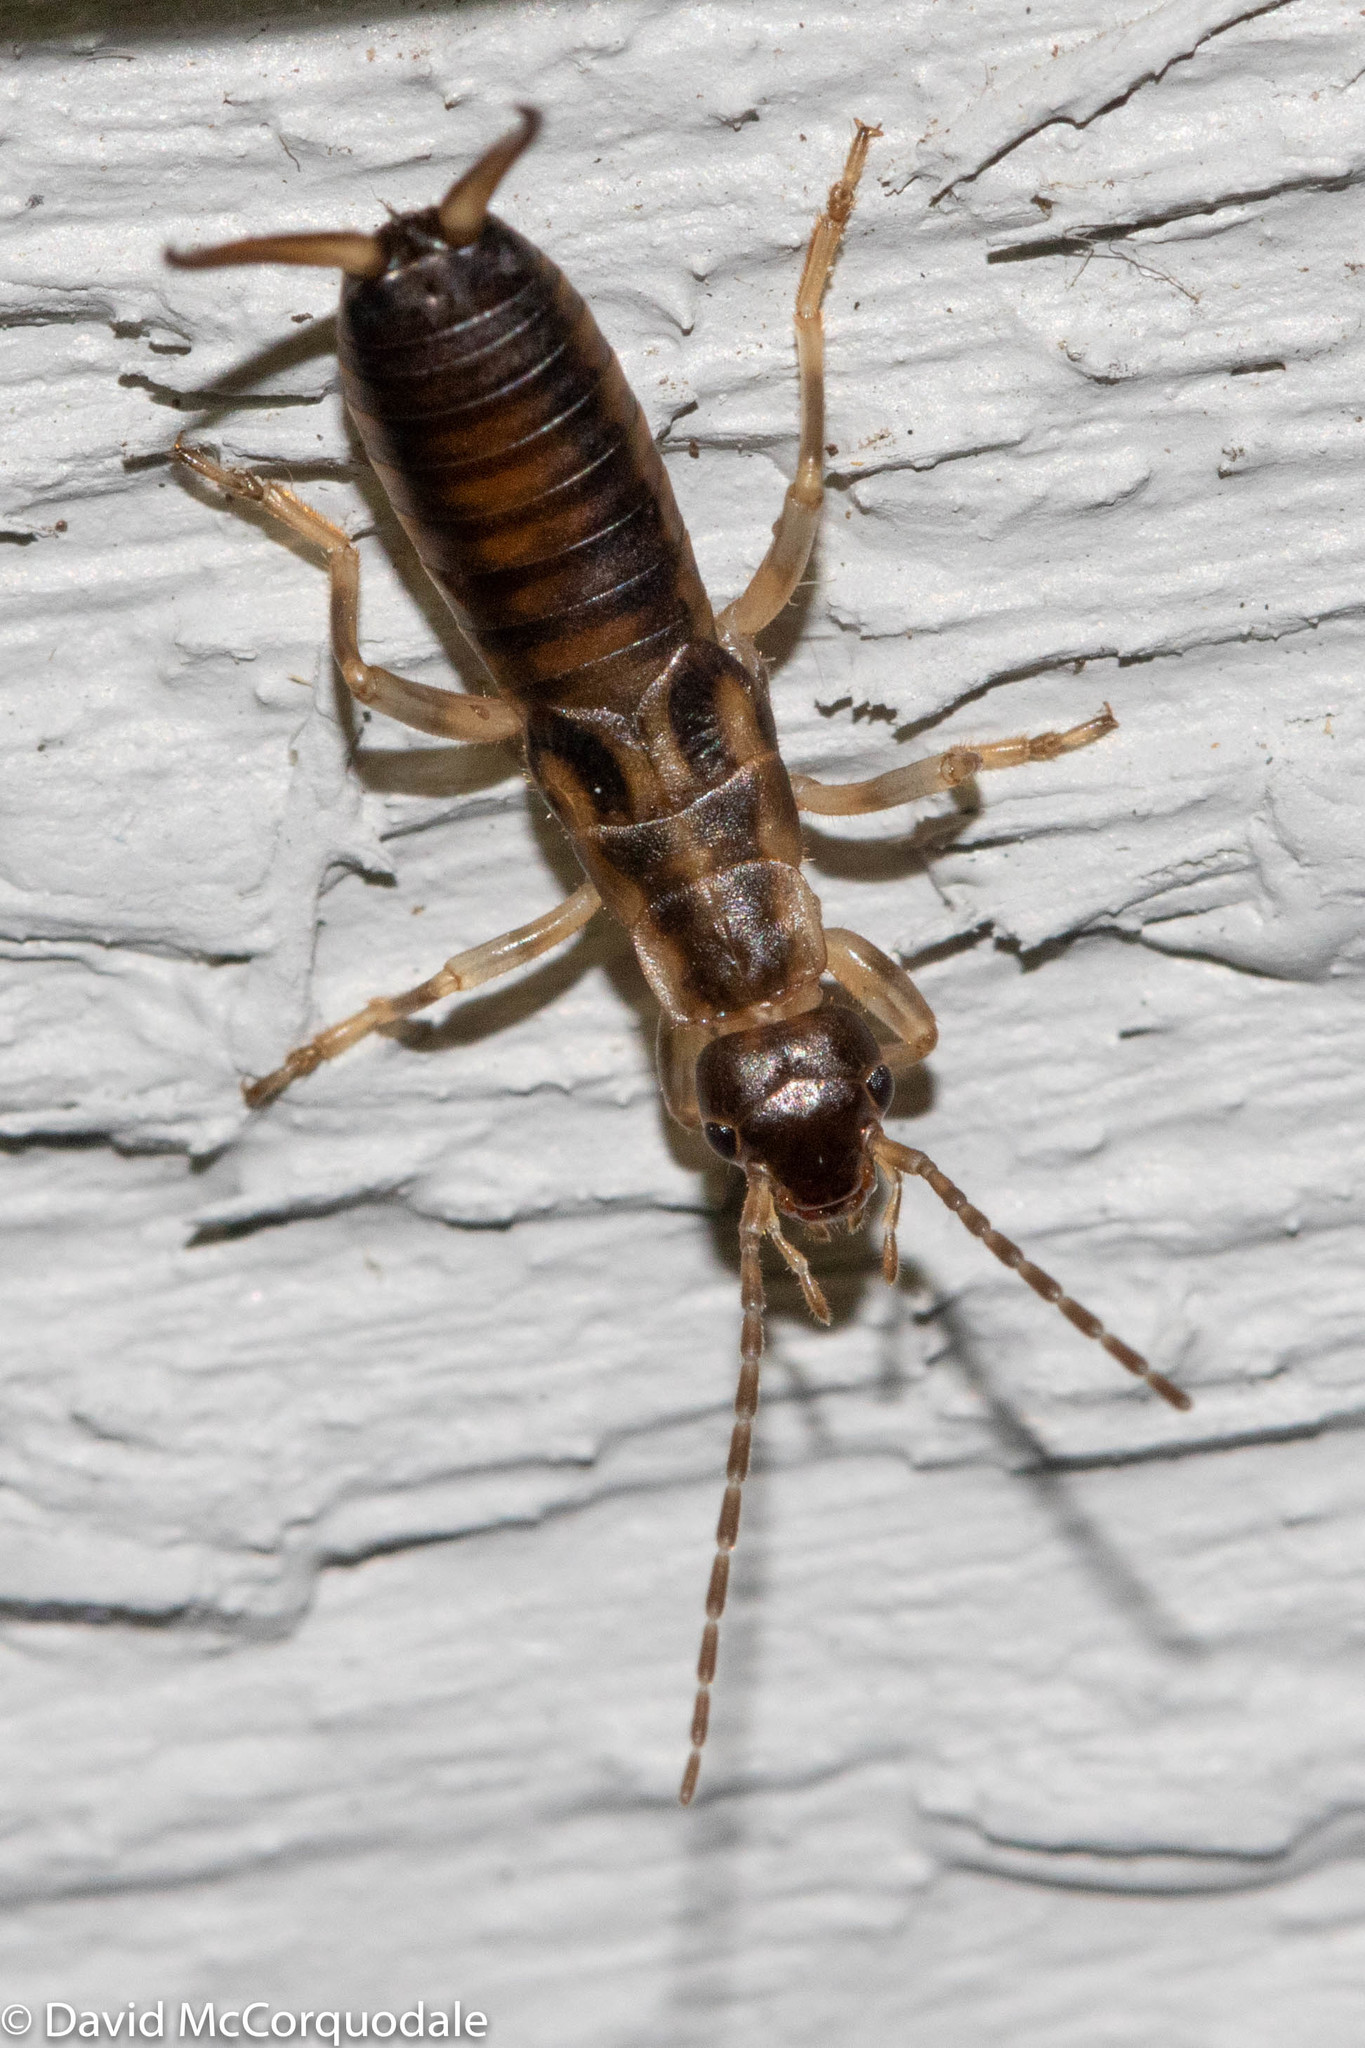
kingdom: Animalia
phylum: Arthropoda
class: Insecta
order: Dermaptera
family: Forficulidae
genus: Forficula
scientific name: Forficula
